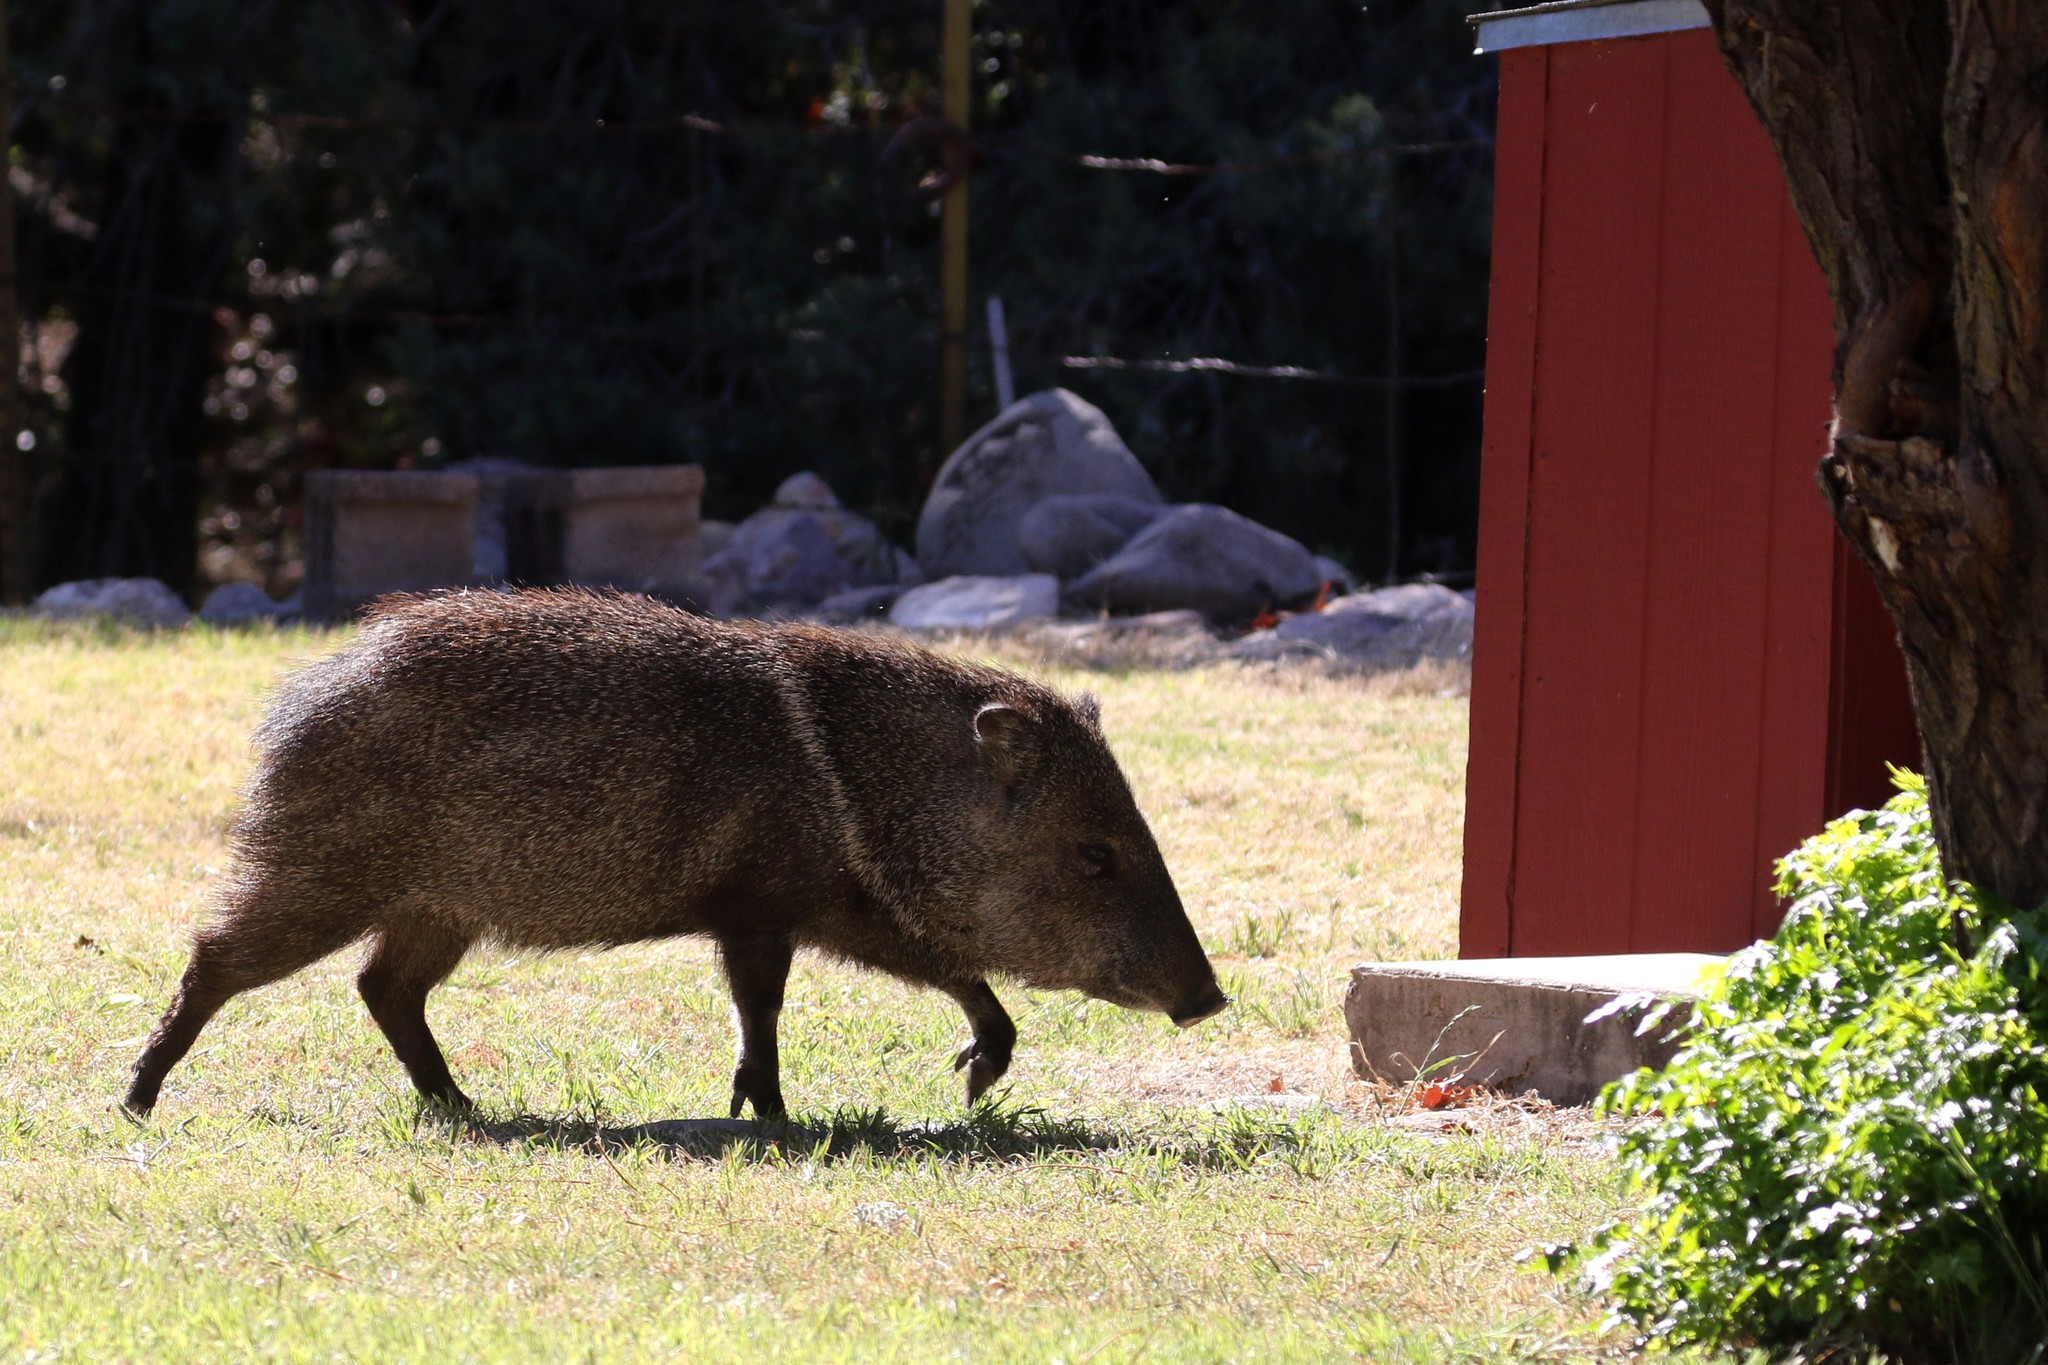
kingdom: Animalia
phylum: Chordata
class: Mammalia
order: Artiodactyla
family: Tayassuidae
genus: Pecari
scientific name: Pecari tajacu
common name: Collared peccary
